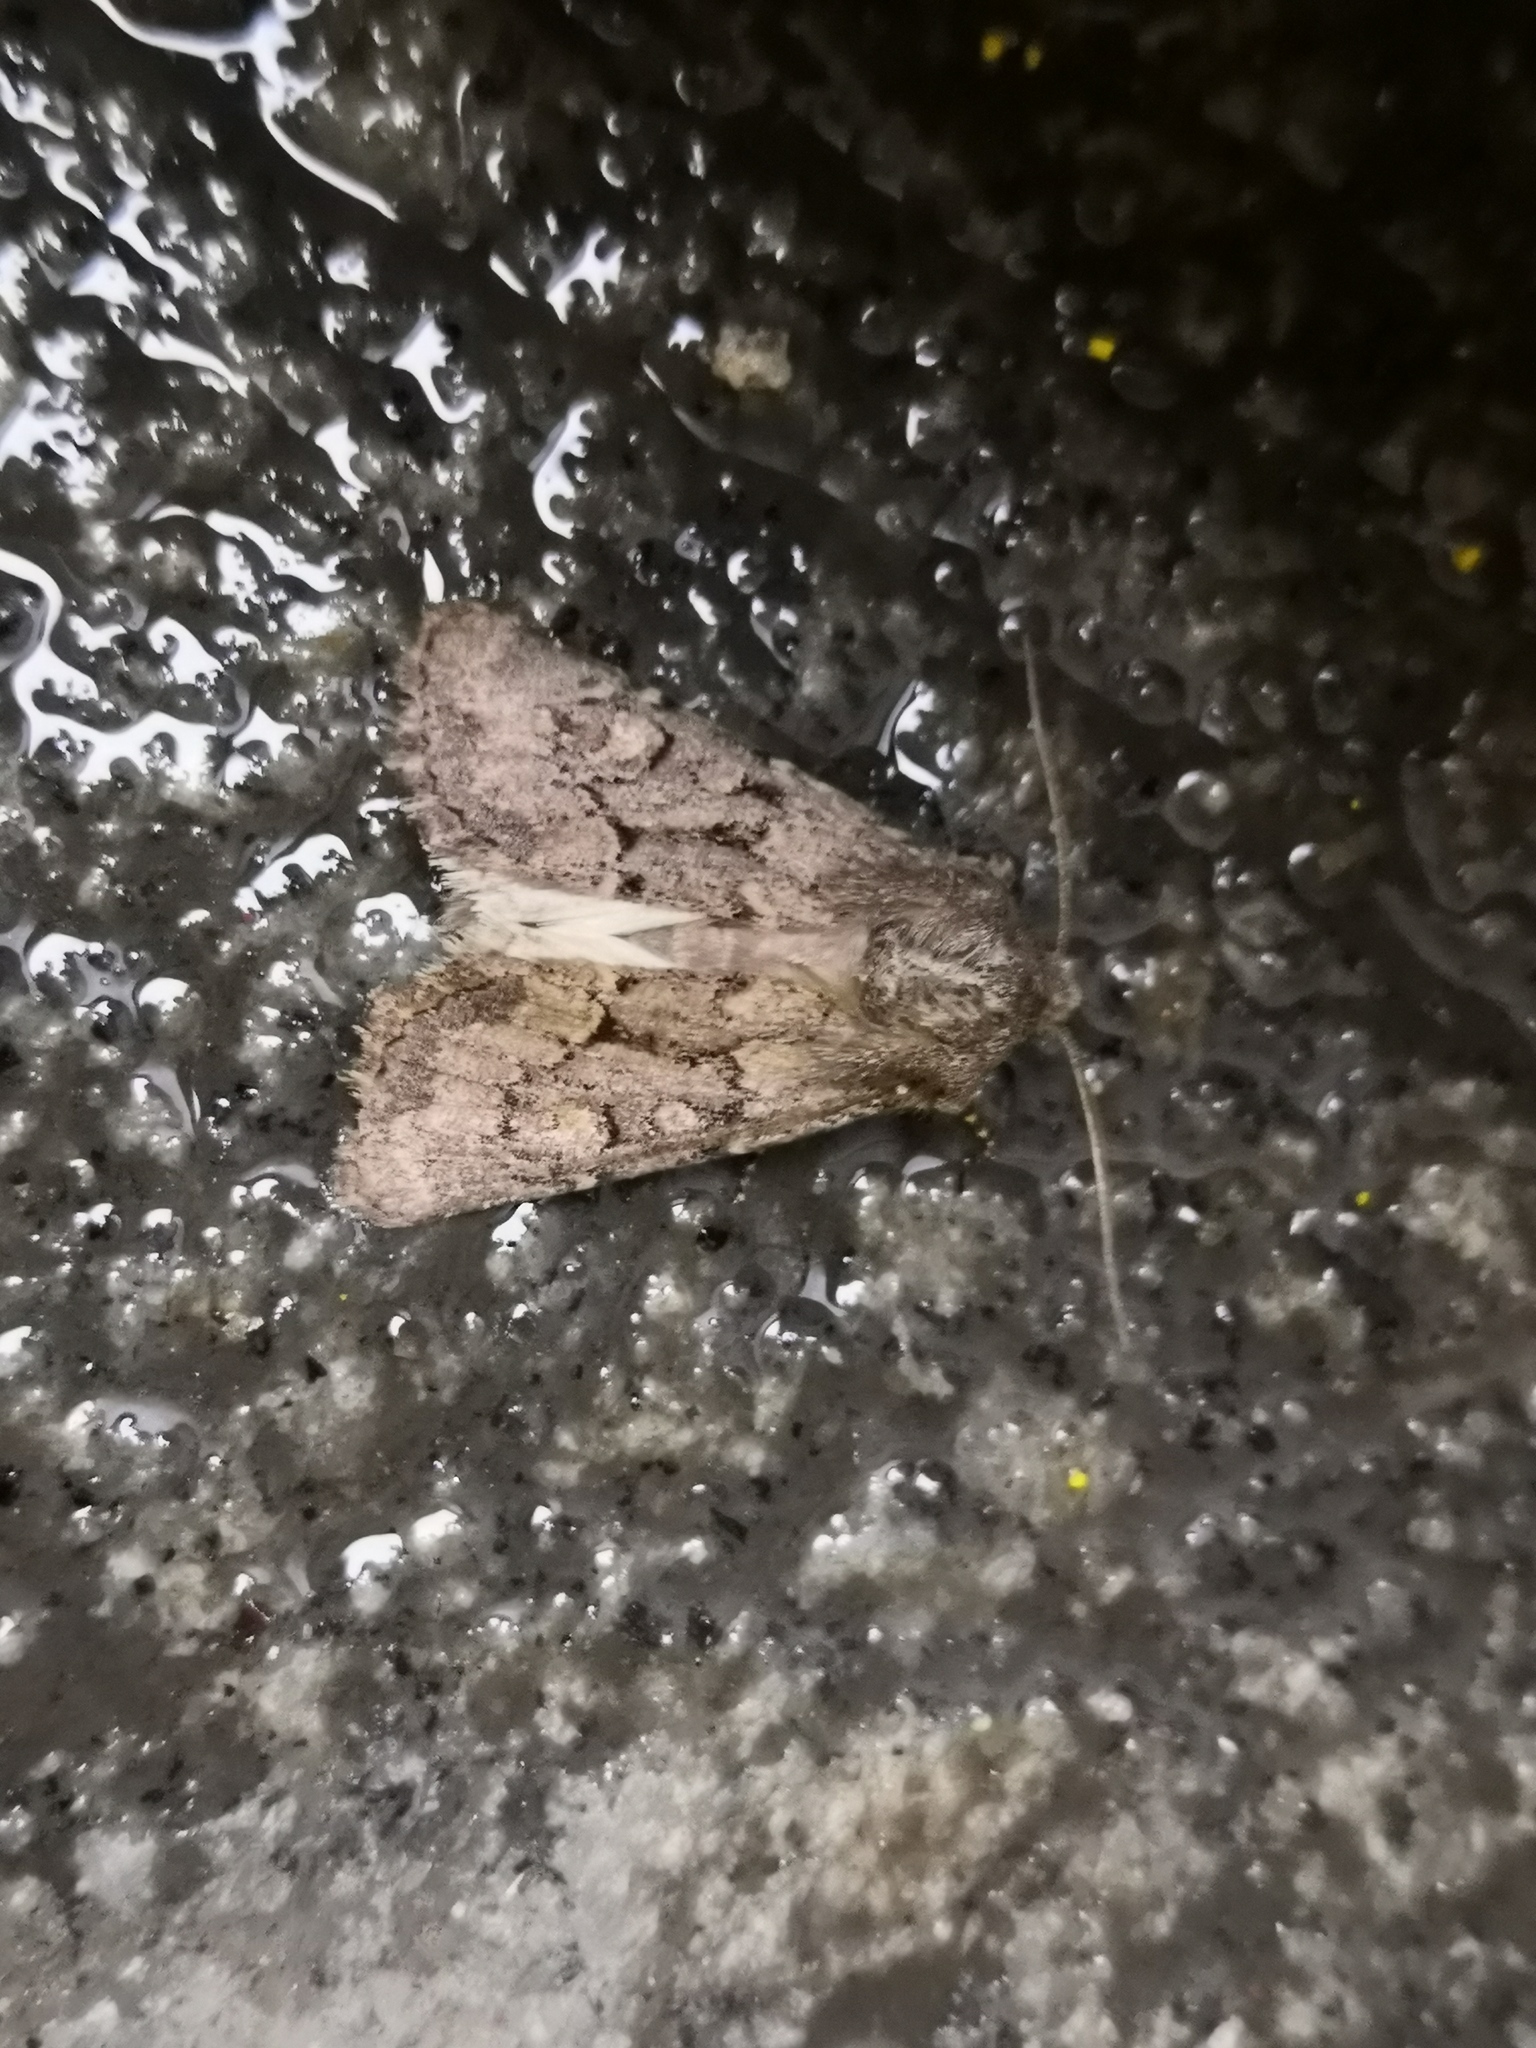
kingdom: Animalia
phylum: Arthropoda
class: Insecta
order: Lepidoptera
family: Noctuidae
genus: Luperina
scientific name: Luperina testacea
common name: Flounced rustic
